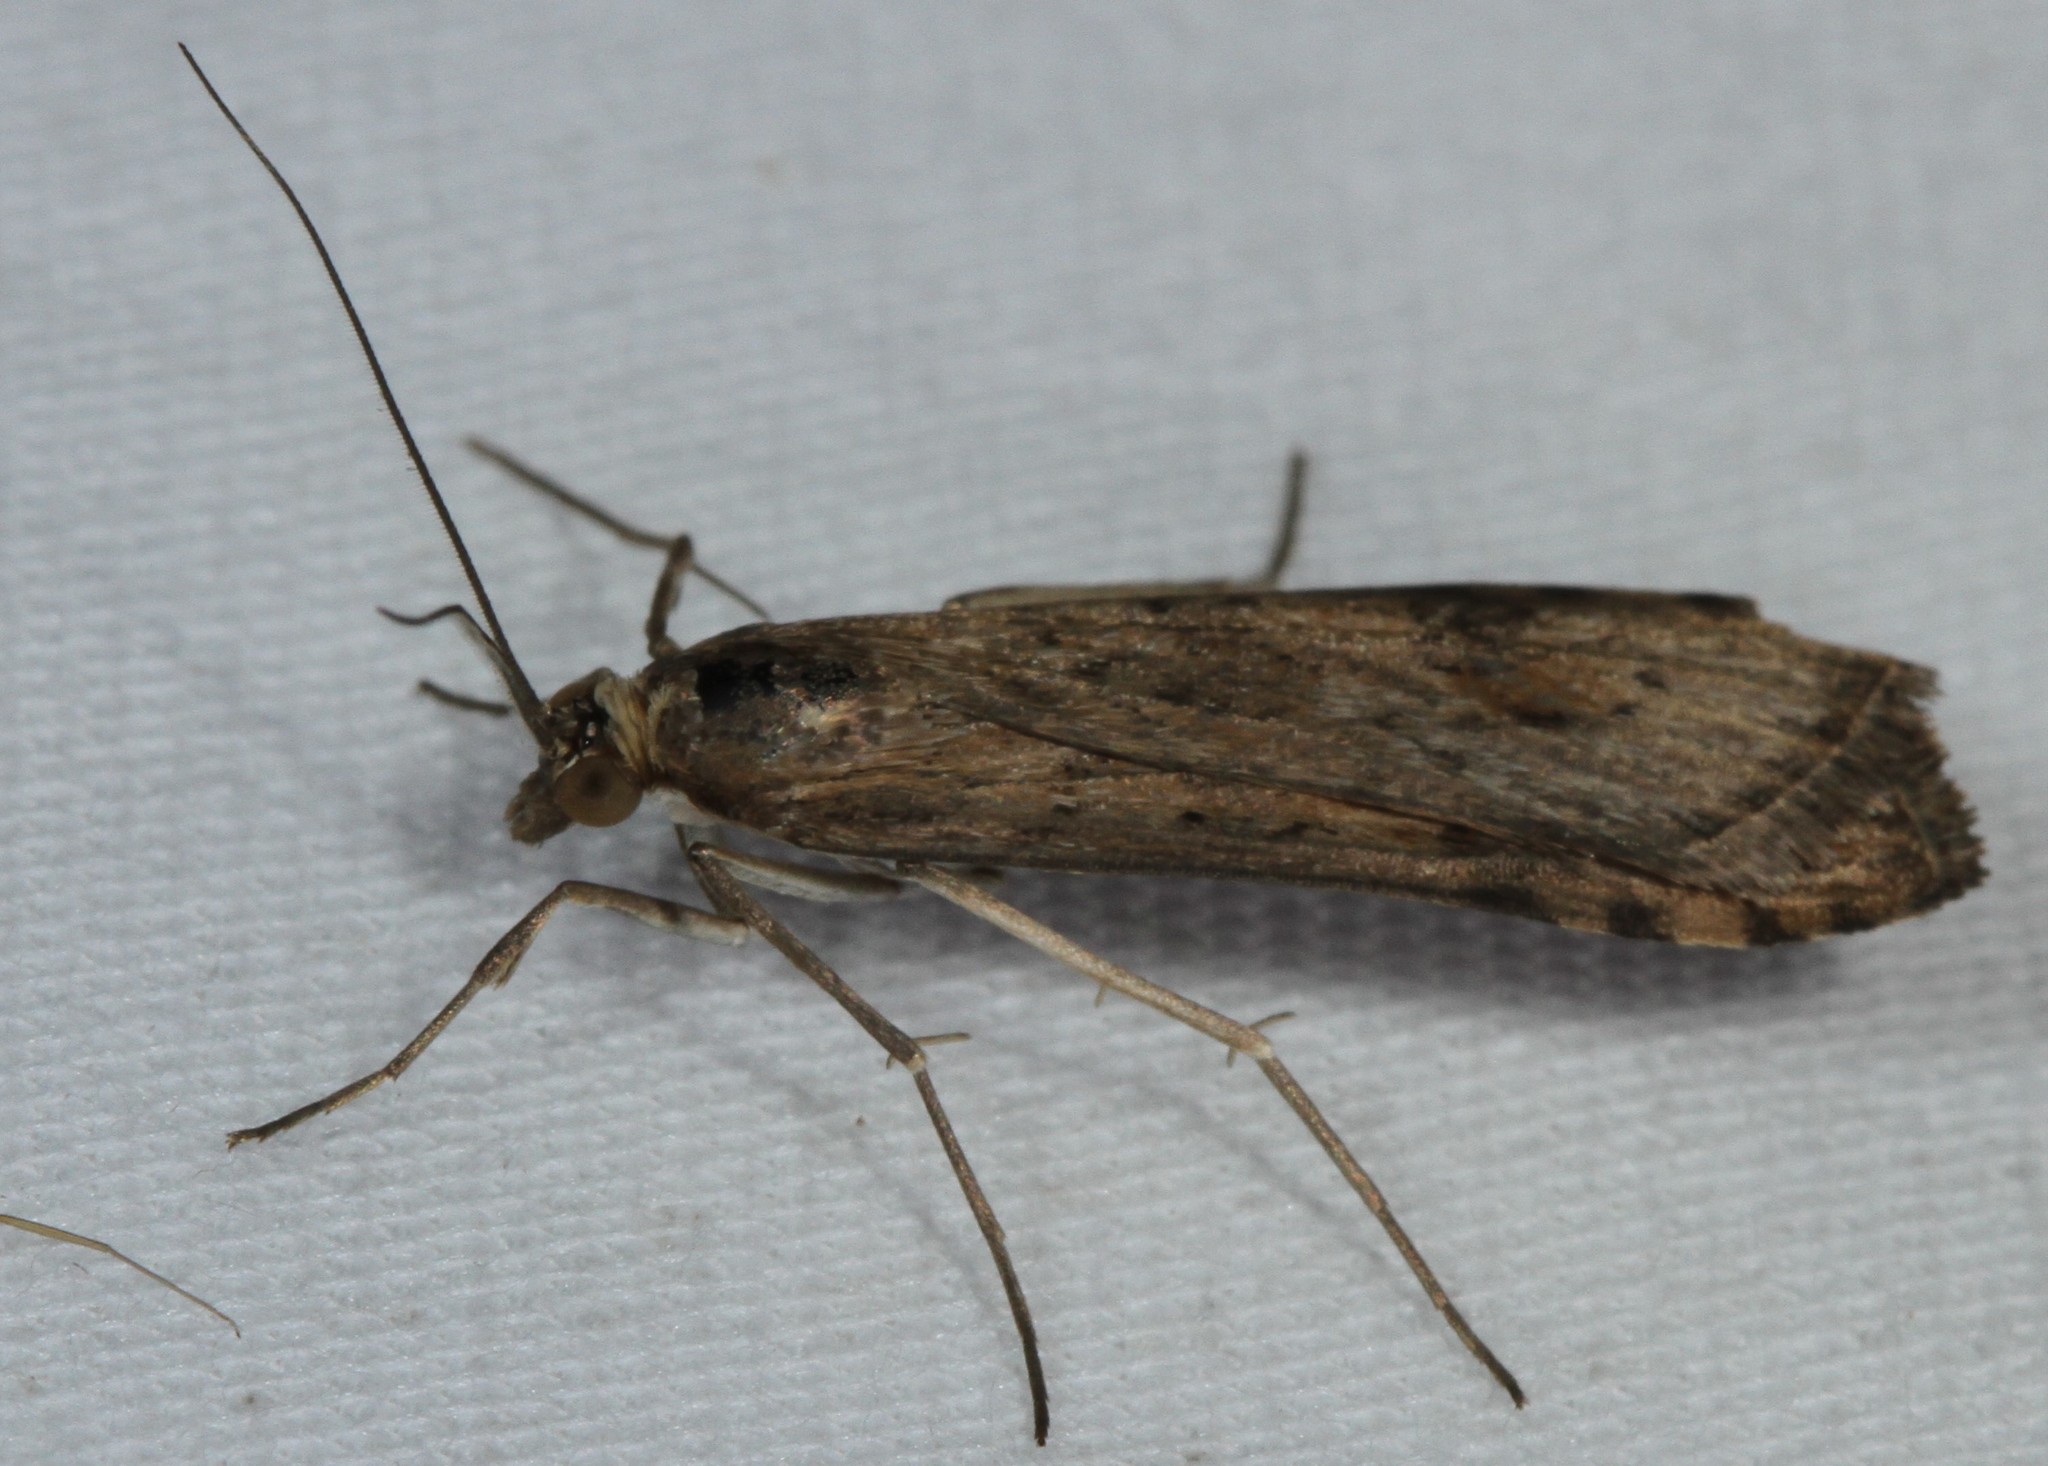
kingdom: Animalia
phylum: Arthropoda
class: Insecta
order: Lepidoptera
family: Crambidae
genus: Nomophila
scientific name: Nomophila nearctica
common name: American rush veneer
